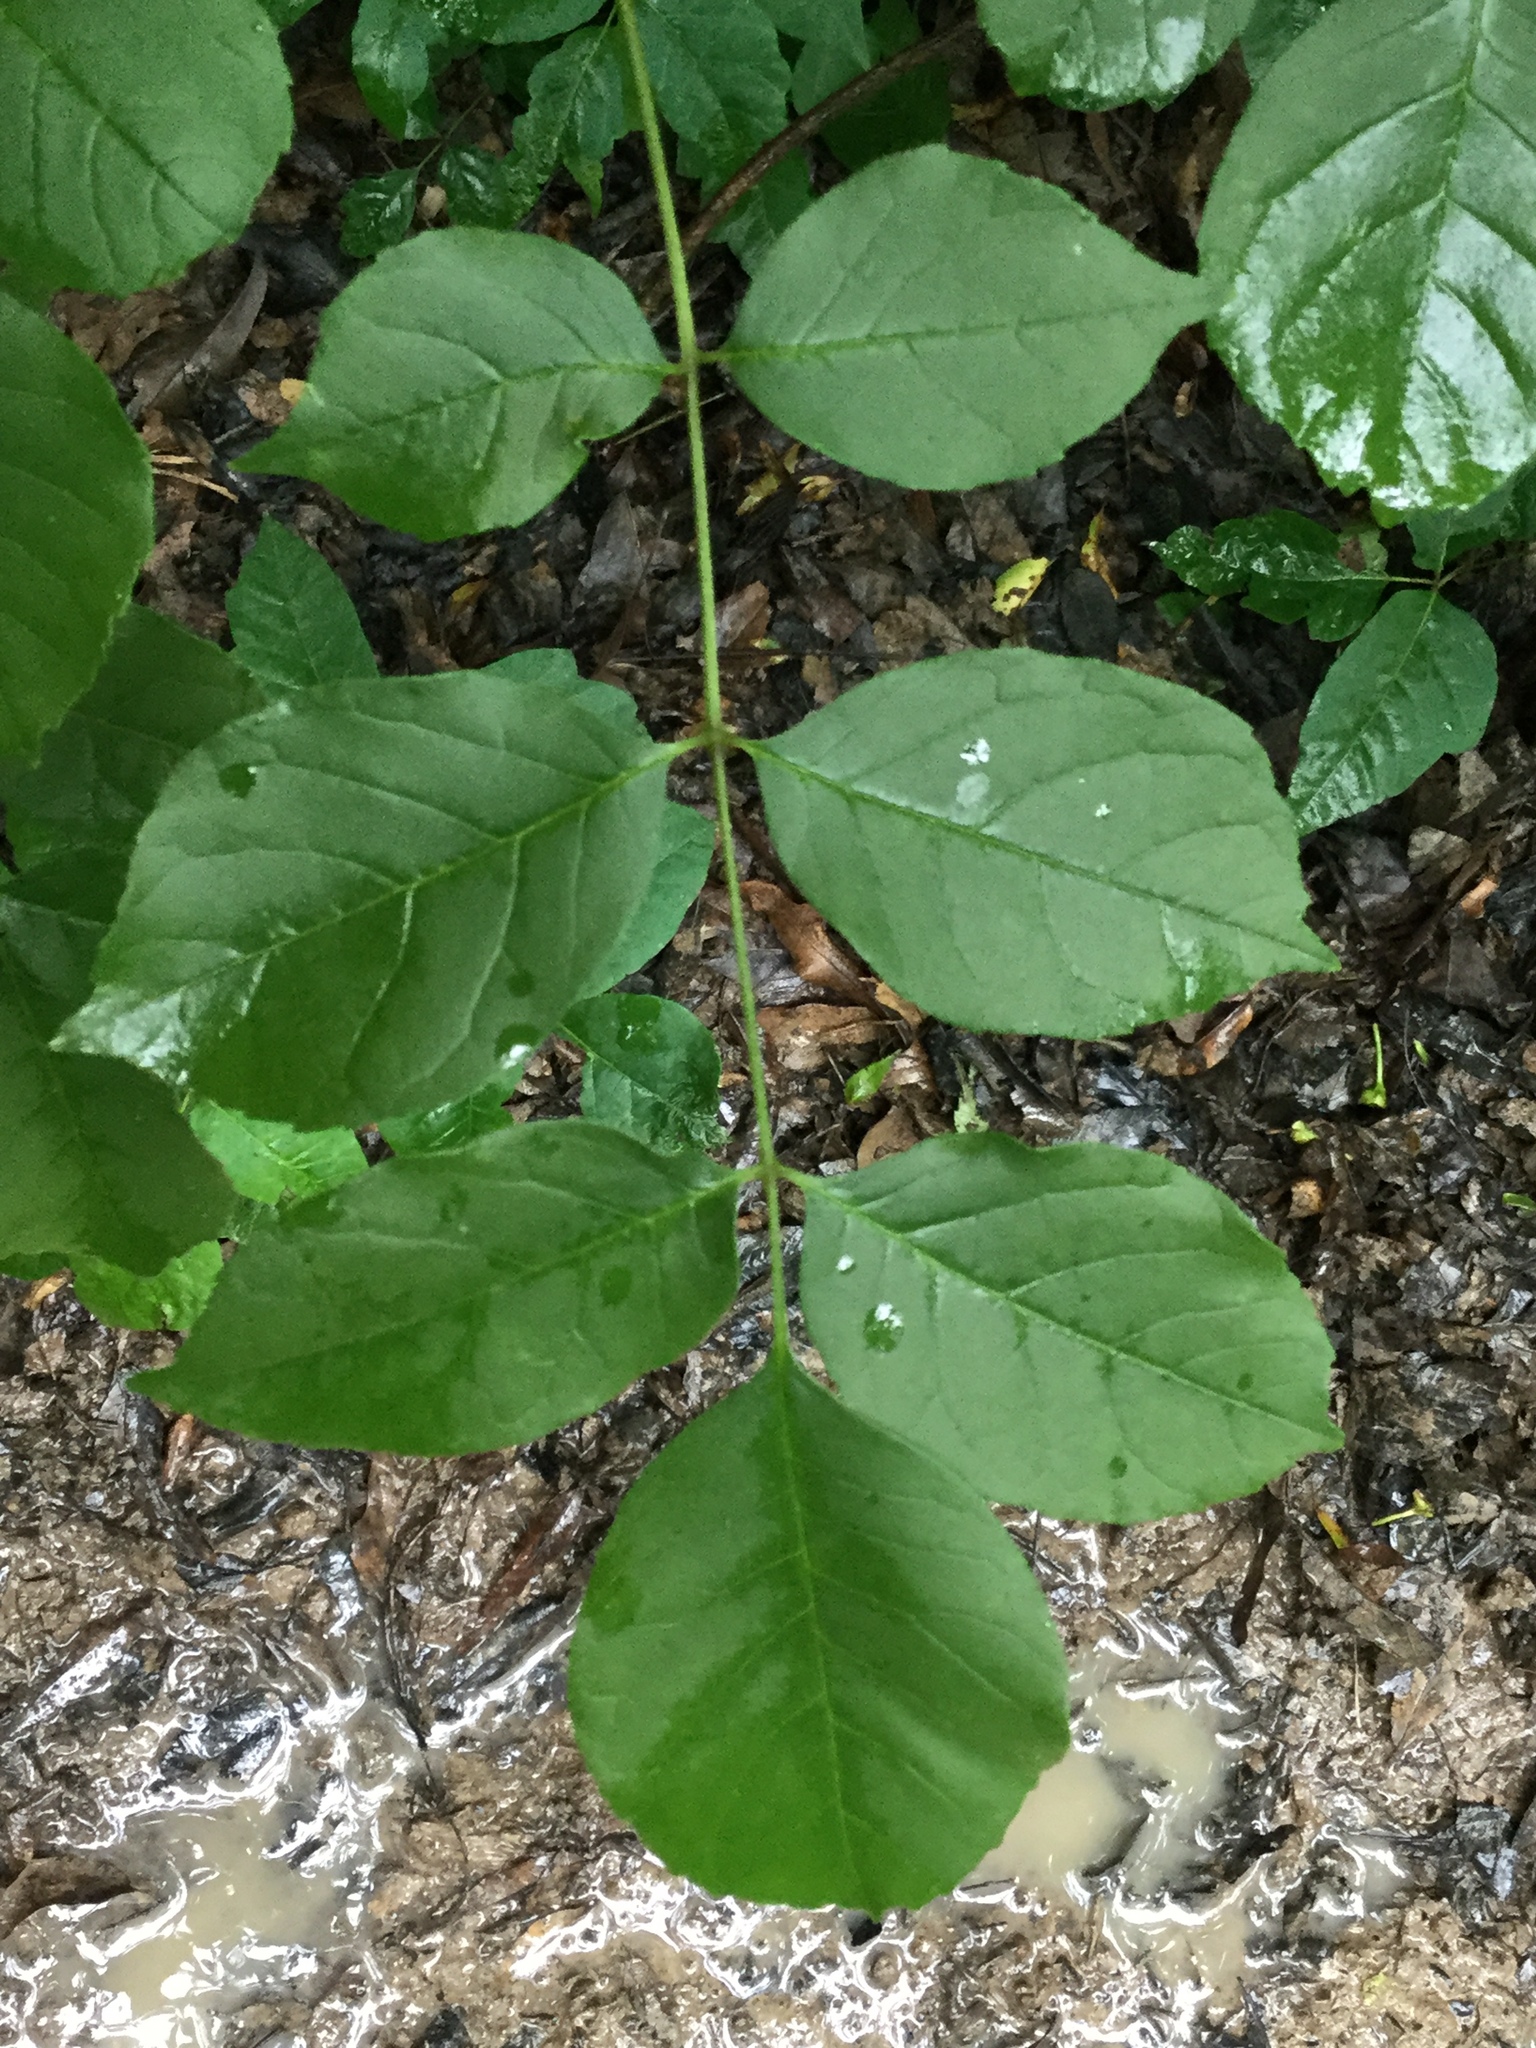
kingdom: Plantae
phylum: Tracheophyta
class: Magnoliopsida
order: Lamiales
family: Oleaceae
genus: Fraxinus
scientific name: Fraxinus pennsylvanica
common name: Green ash
